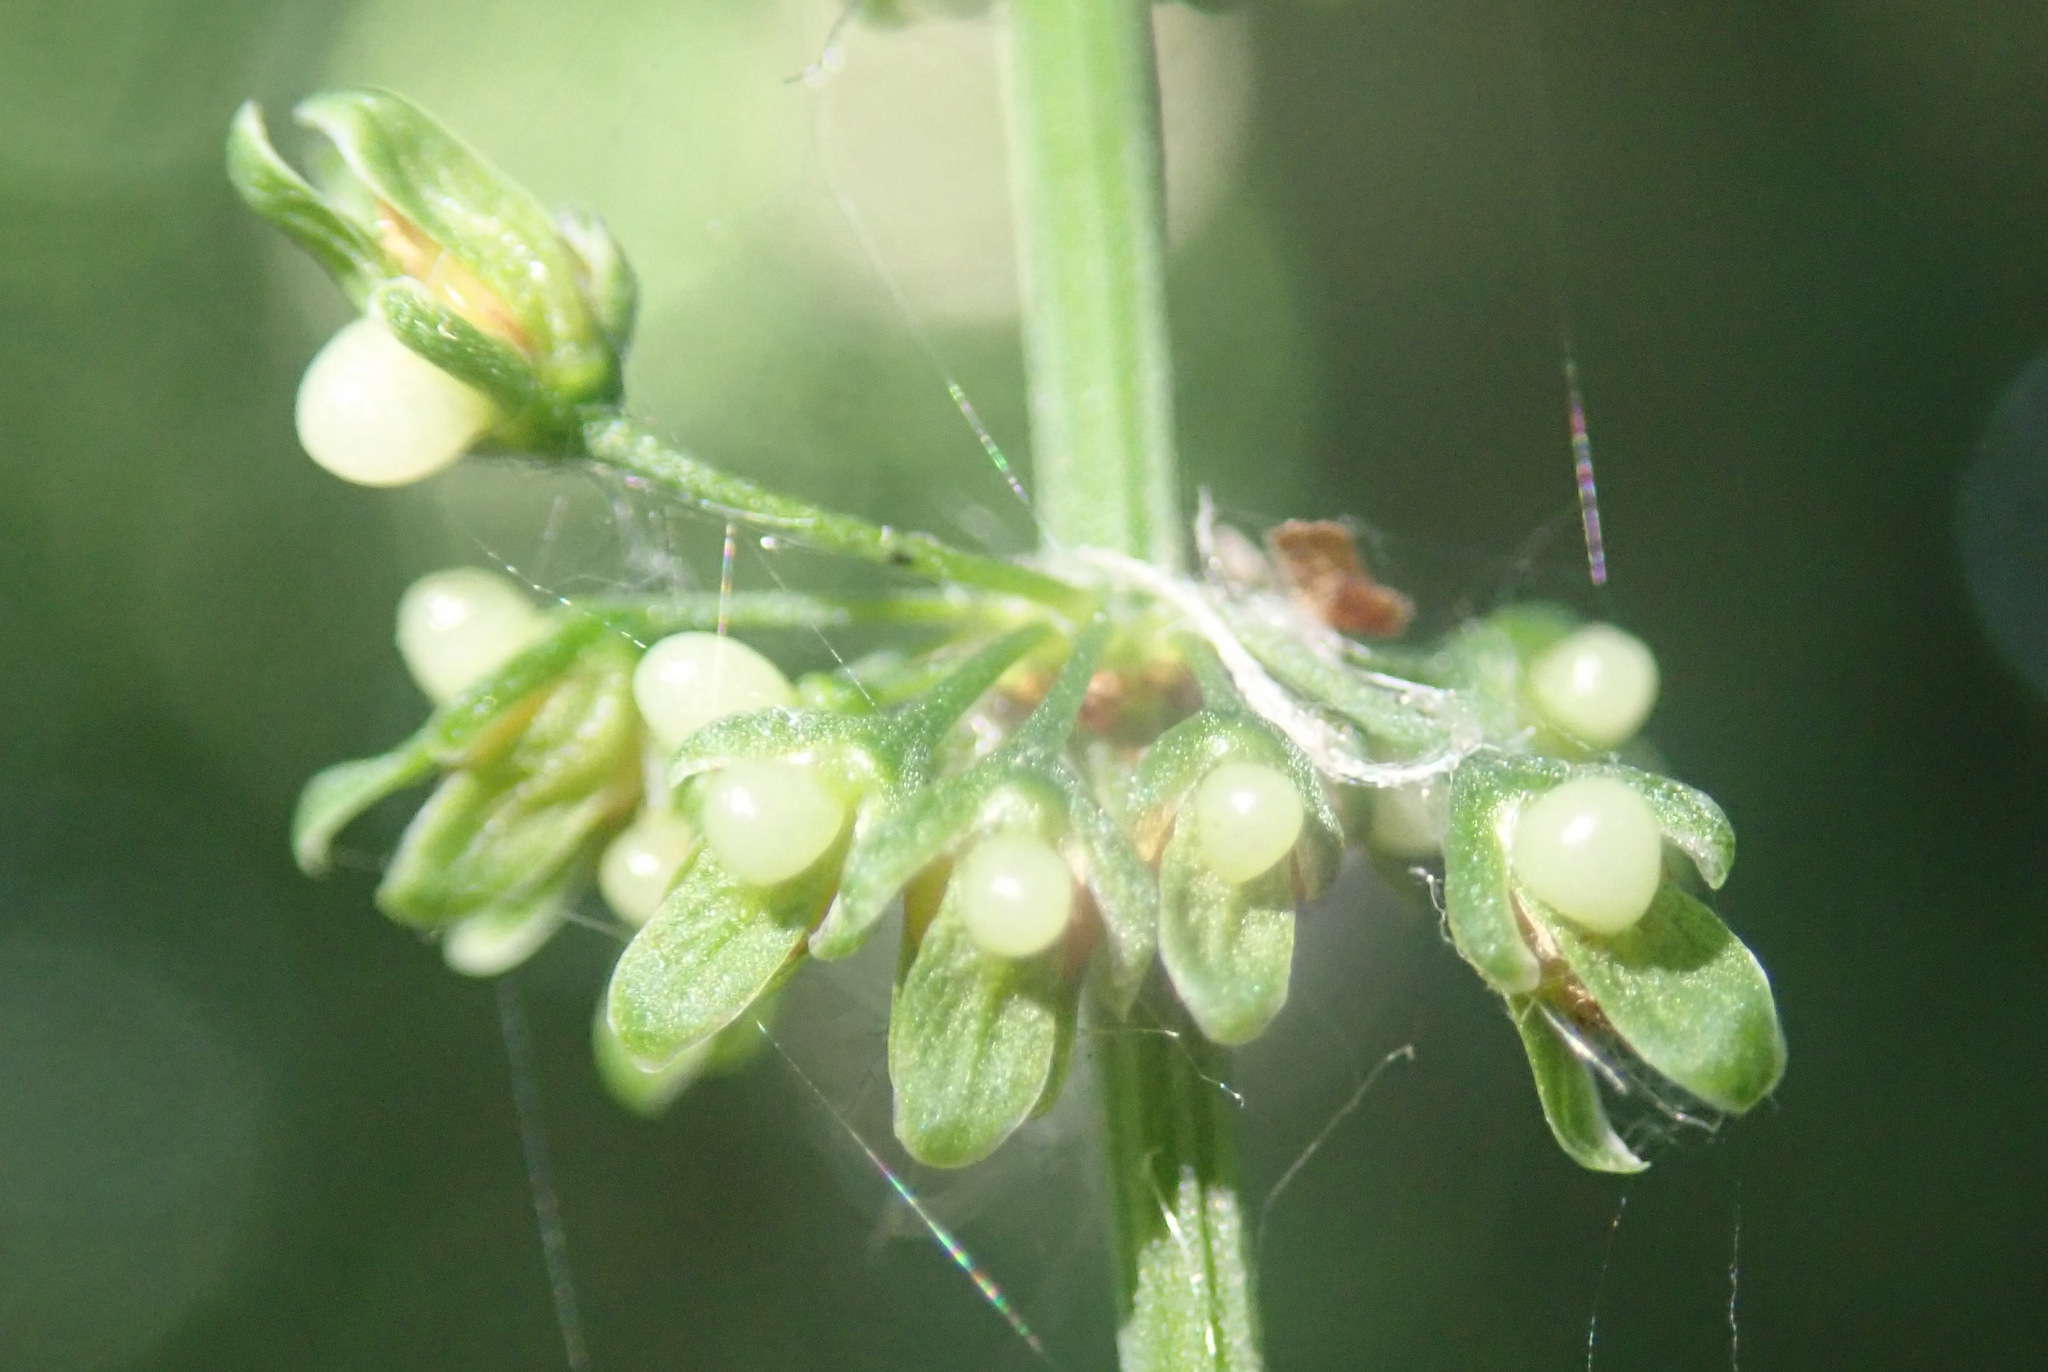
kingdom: Plantae
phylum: Tracheophyta
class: Magnoliopsida
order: Caryophyllales
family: Polygonaceae
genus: Rumex
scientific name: Rumex sanguineus
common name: Wood dock
